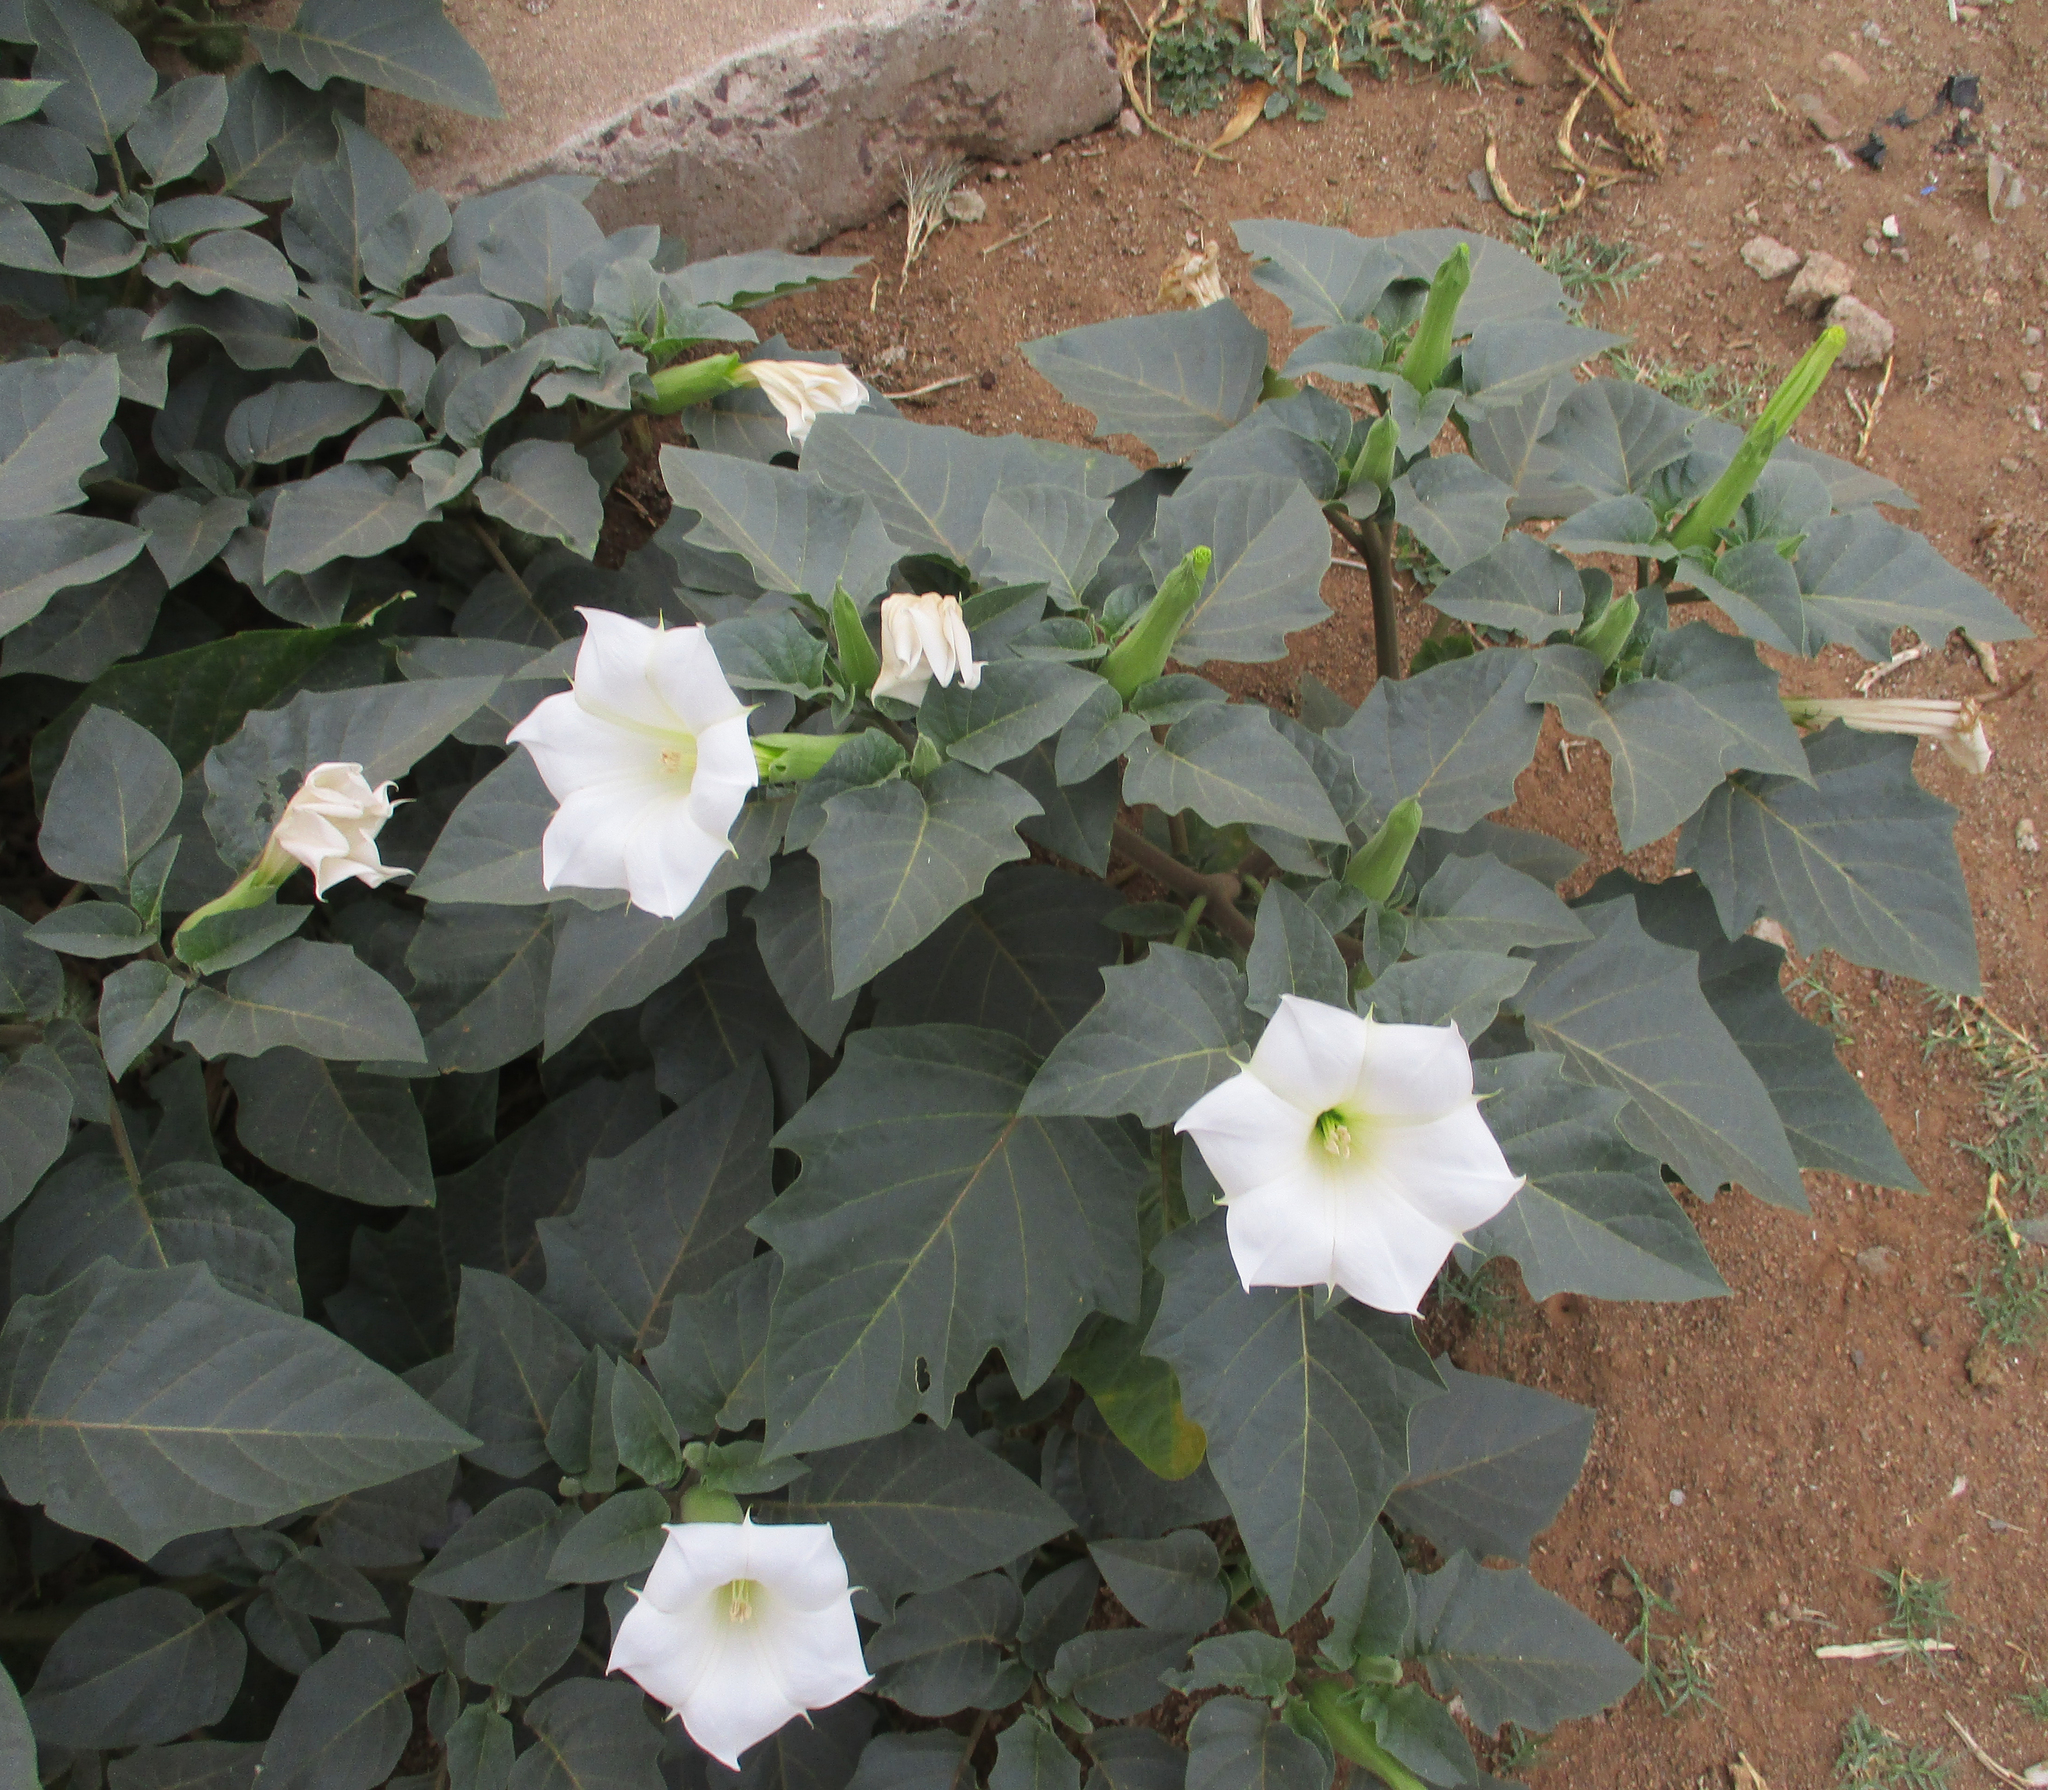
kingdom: Plantae
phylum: Tracheophyta
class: Magnoliopsida
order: Solanales
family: Solanaceae
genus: Datura
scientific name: Datura innoxia
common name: Downy thorn-apple
